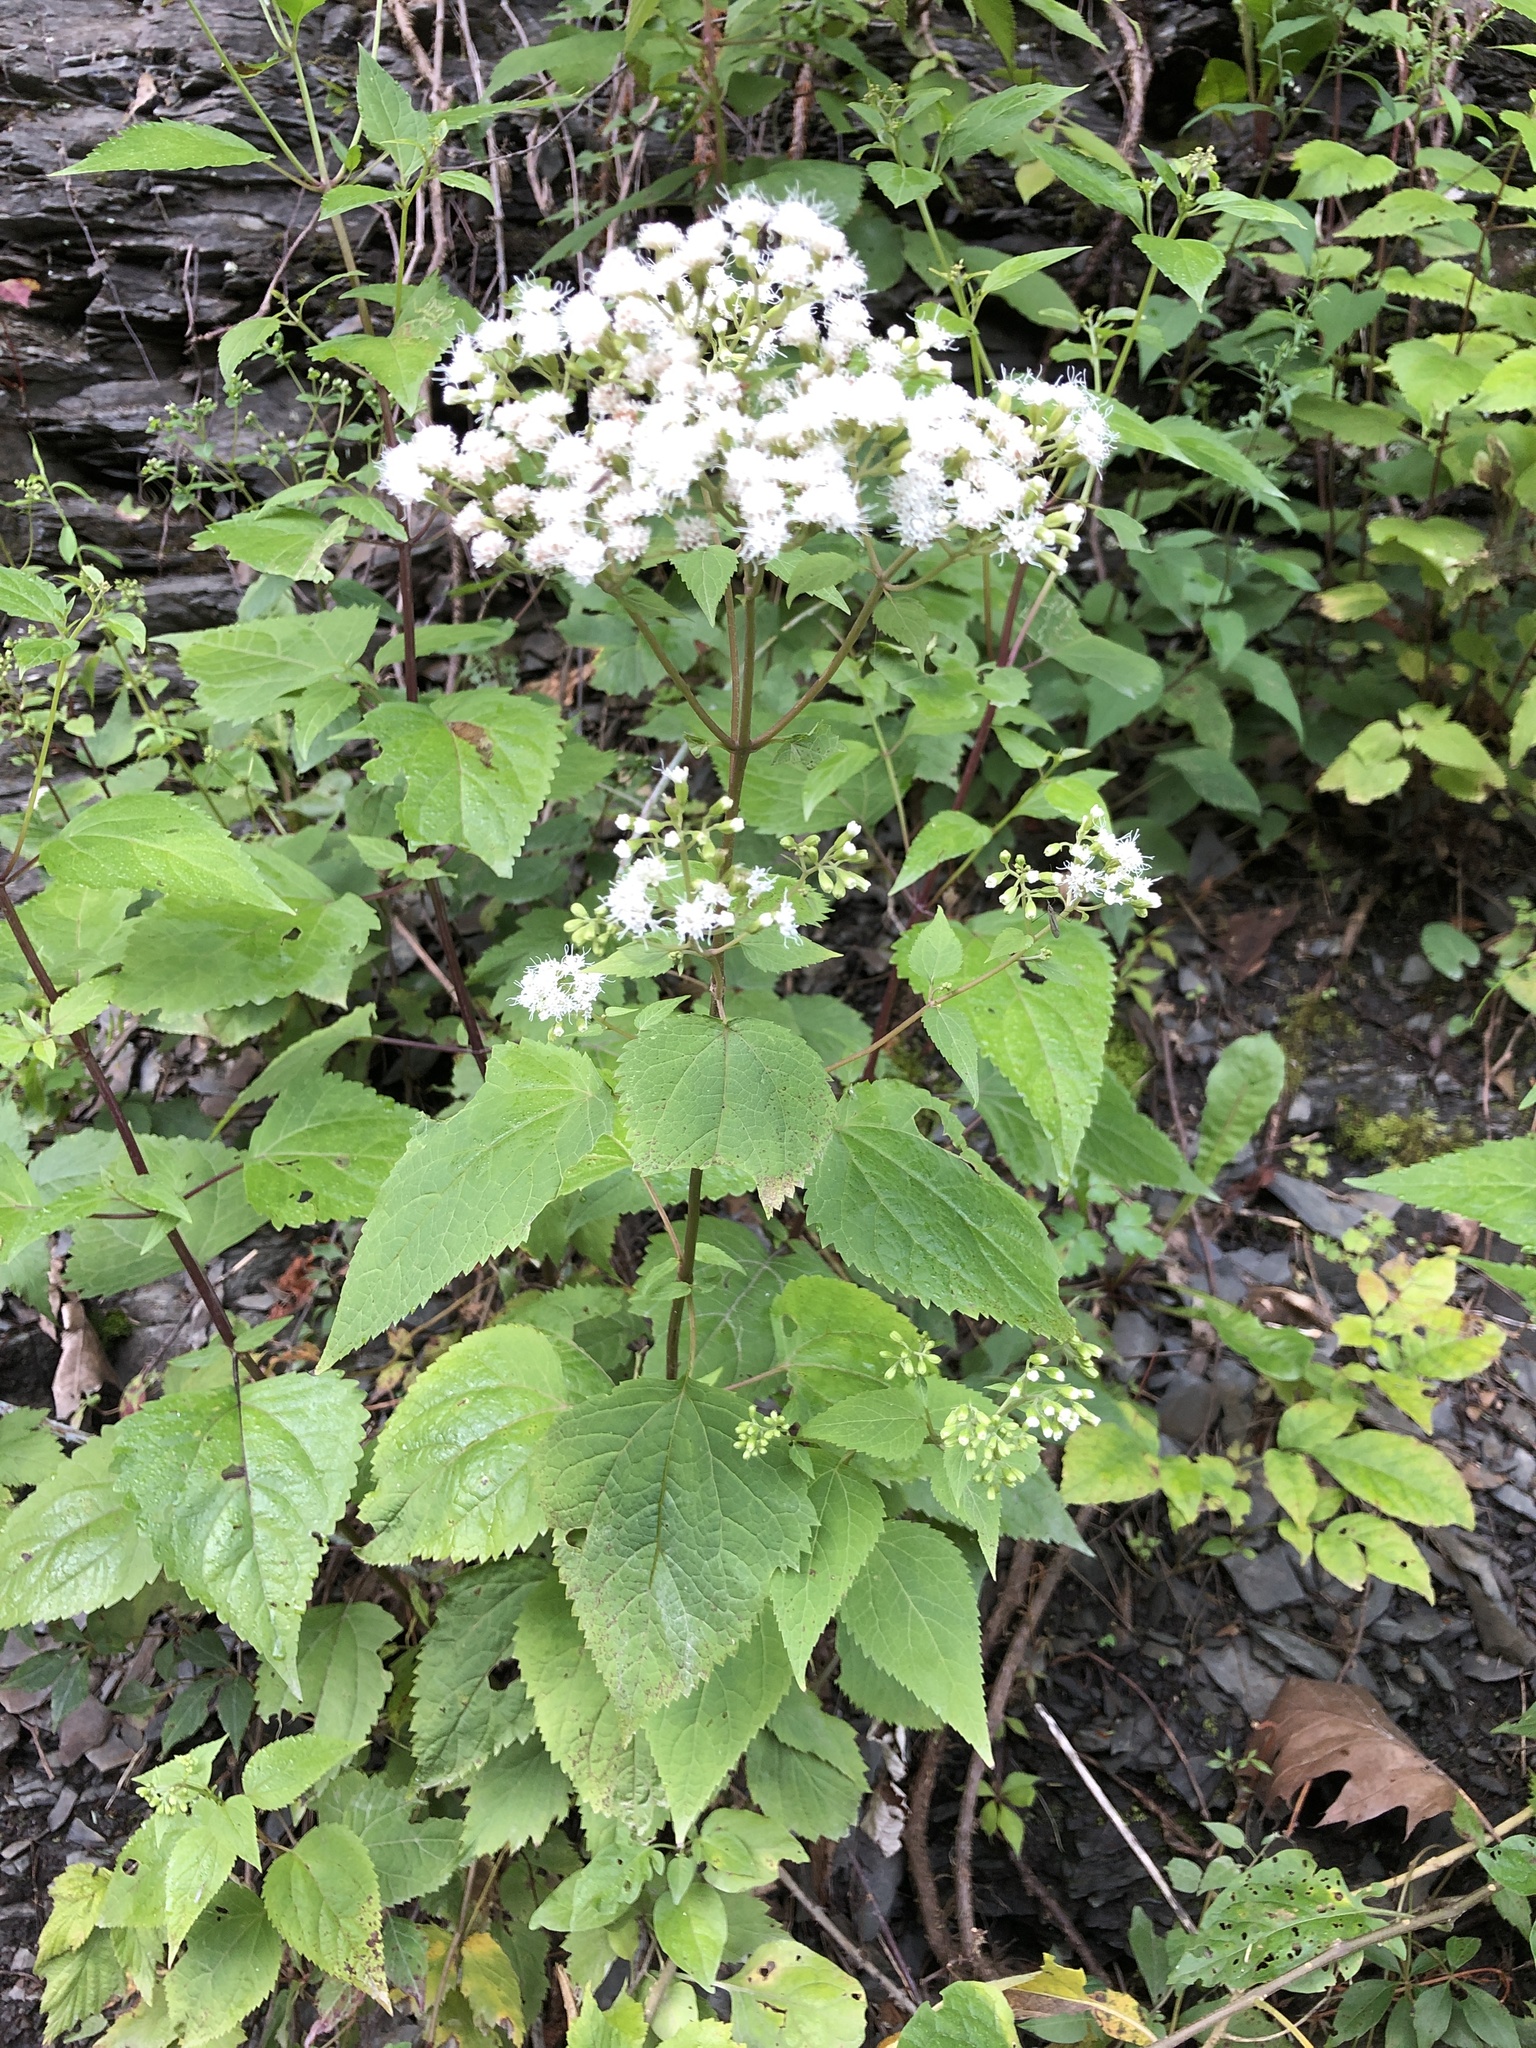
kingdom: Plantae
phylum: Tracheophyta
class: Magnoliopsida
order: Asterales
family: Asteraceae
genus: Ageratina
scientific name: Ageratina altissima
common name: White snakeroot
